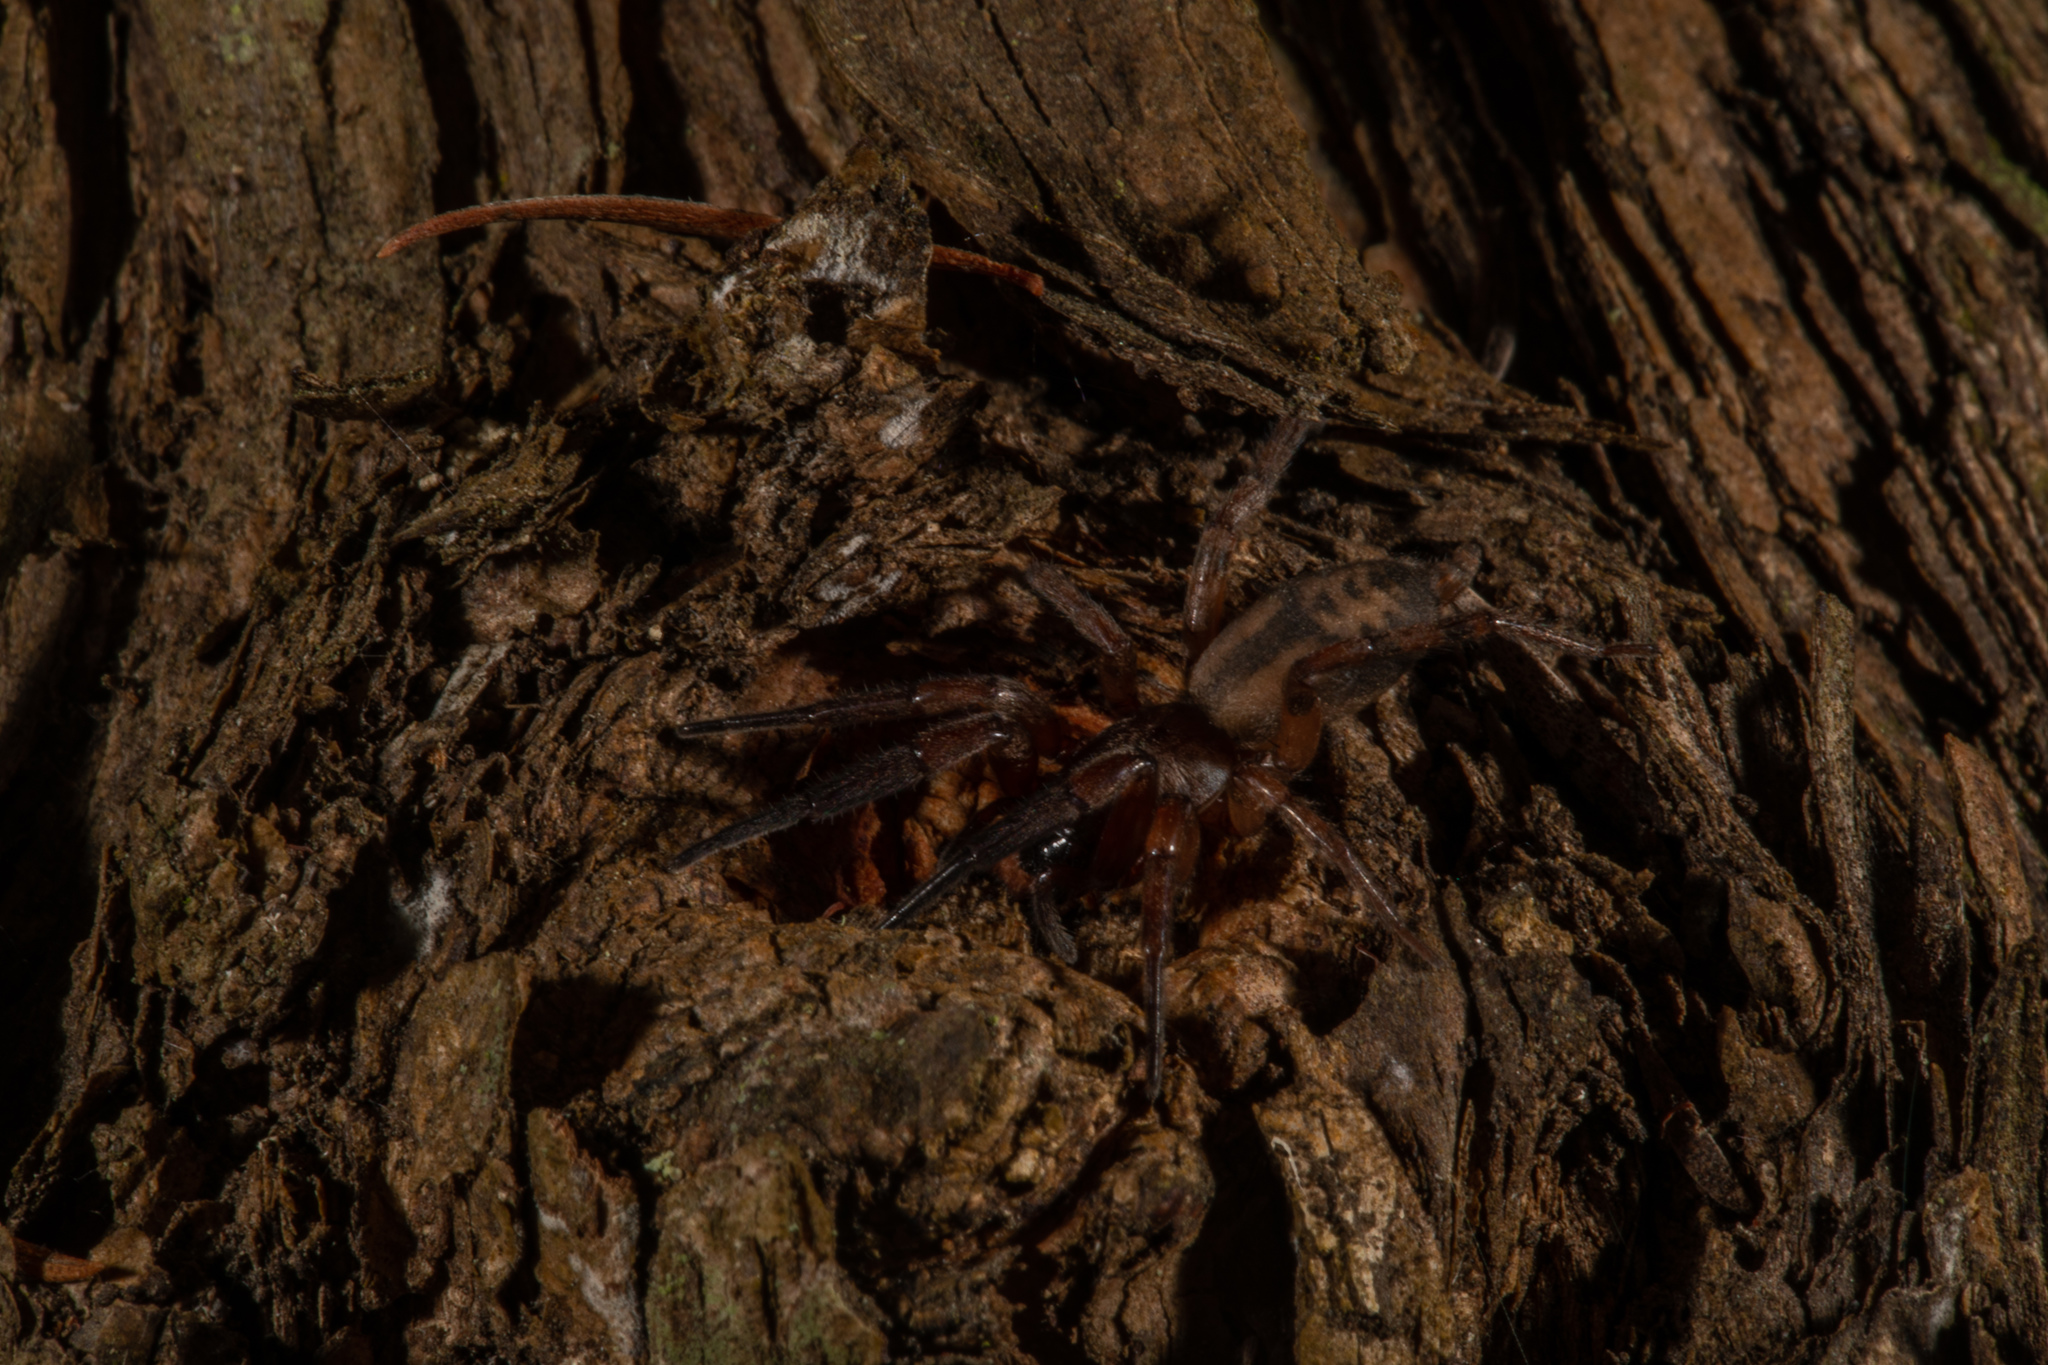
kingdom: Animalia
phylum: Arthropoda
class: Arachnida
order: Araneae
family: Gnaphosidae
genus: Intruda
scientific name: Intruda signata
